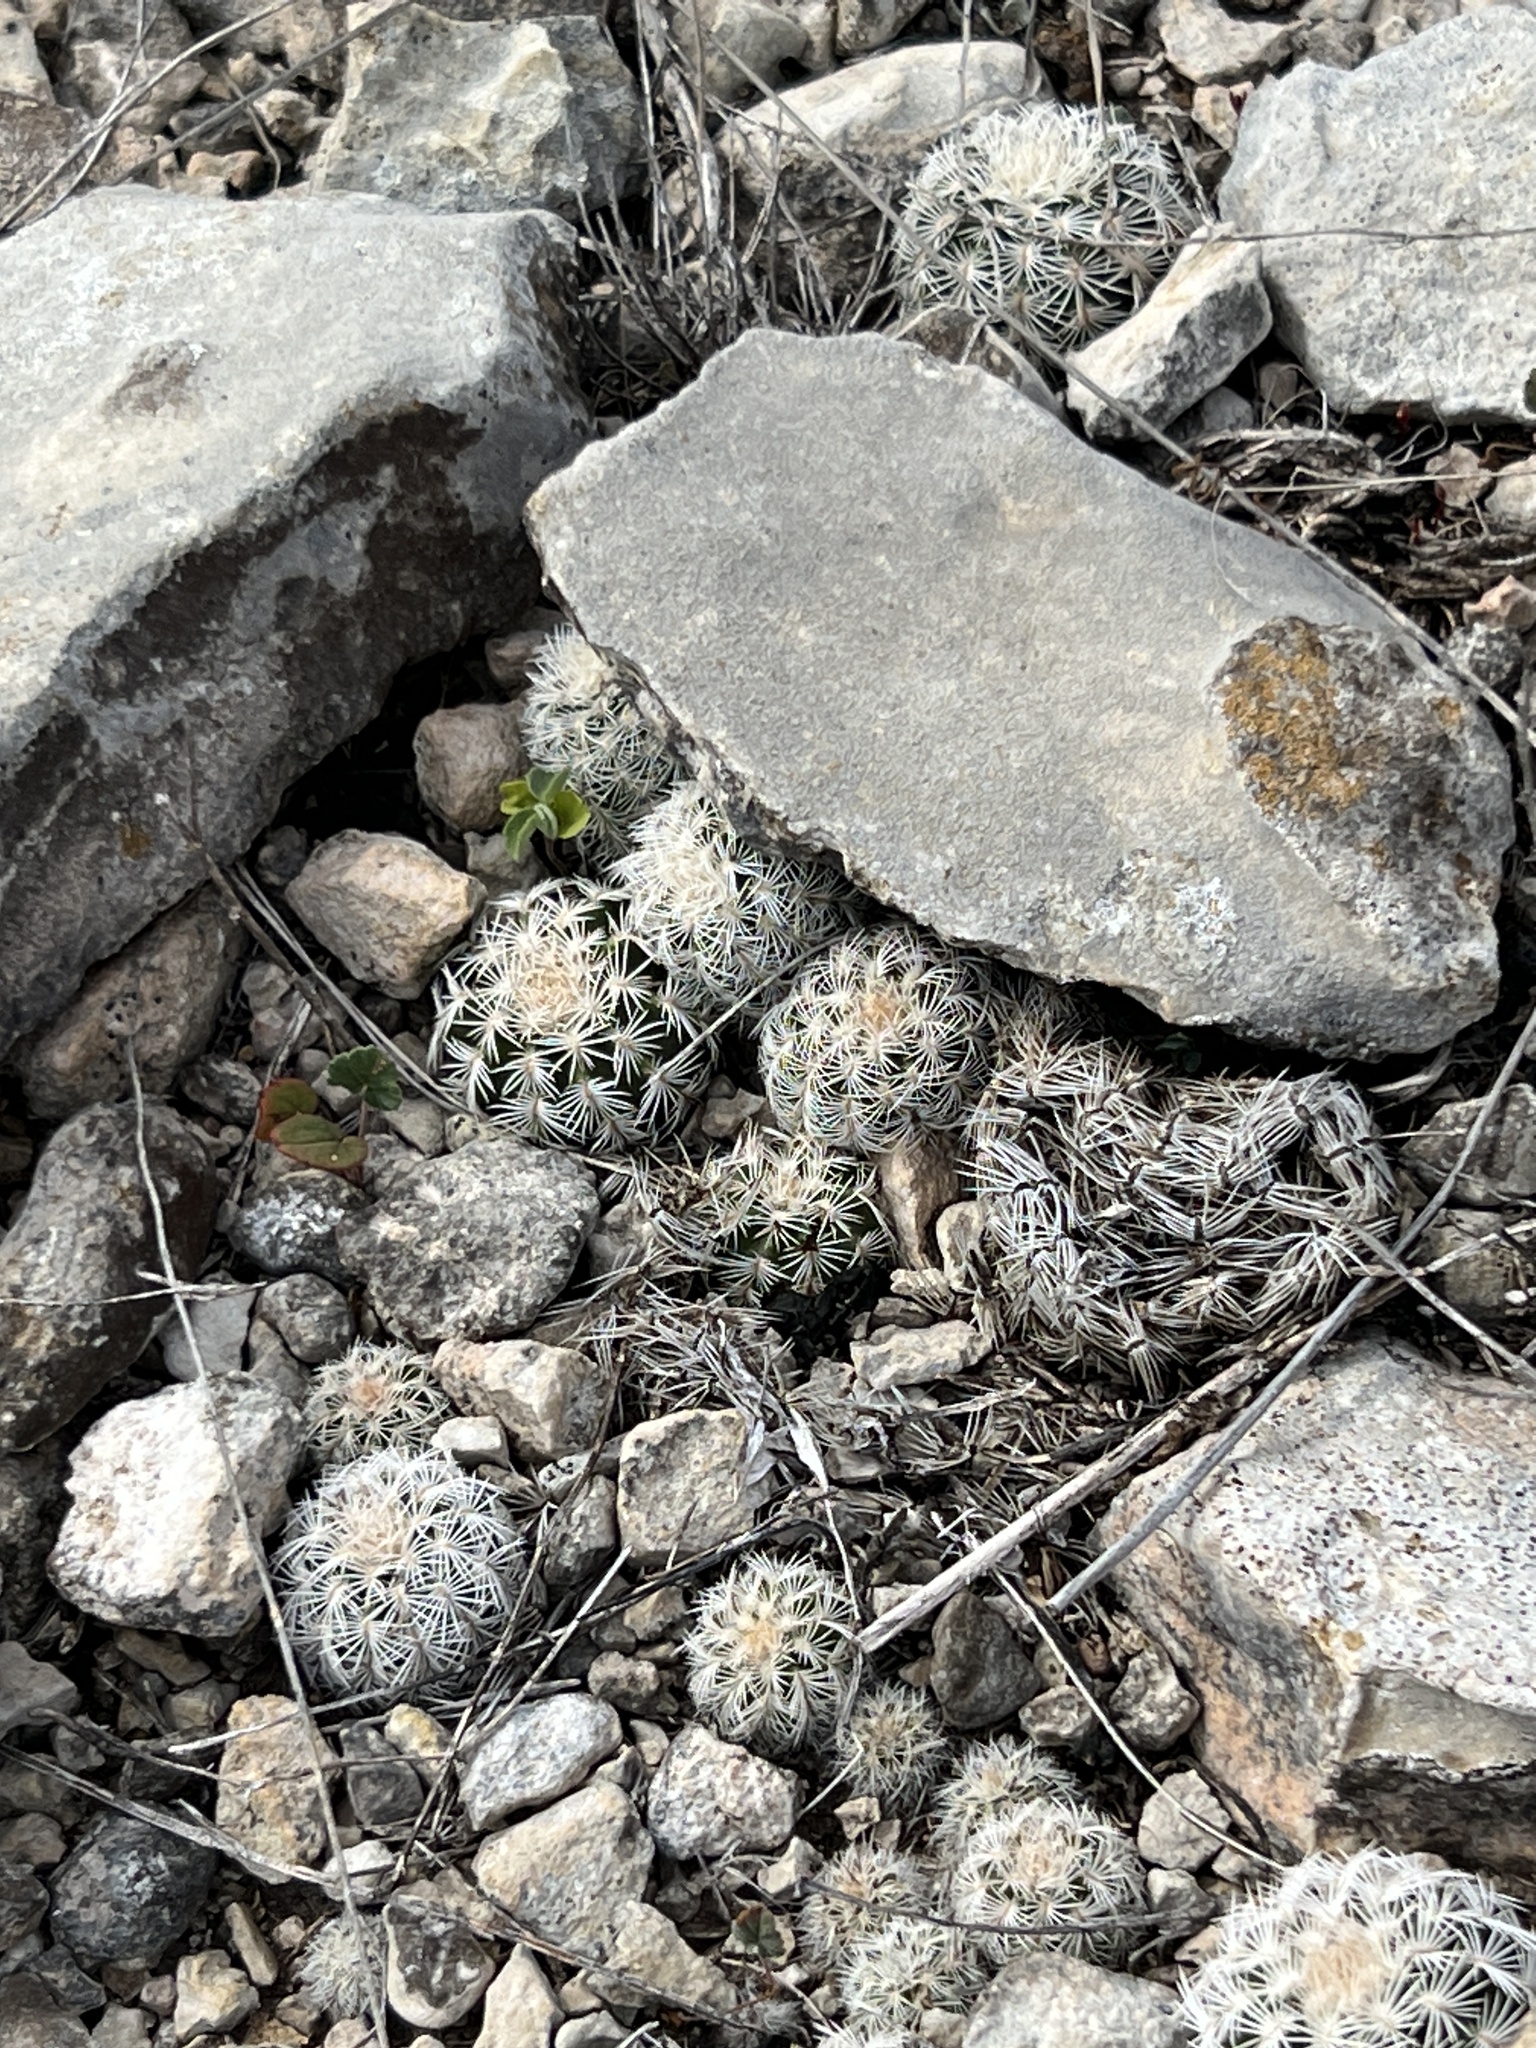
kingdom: Plantae
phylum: Tracheophyta
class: Magnoliopsida
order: Caryophyllales
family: Cactaceae
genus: Echinocereus
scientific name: Echinocereus reichenbachii
